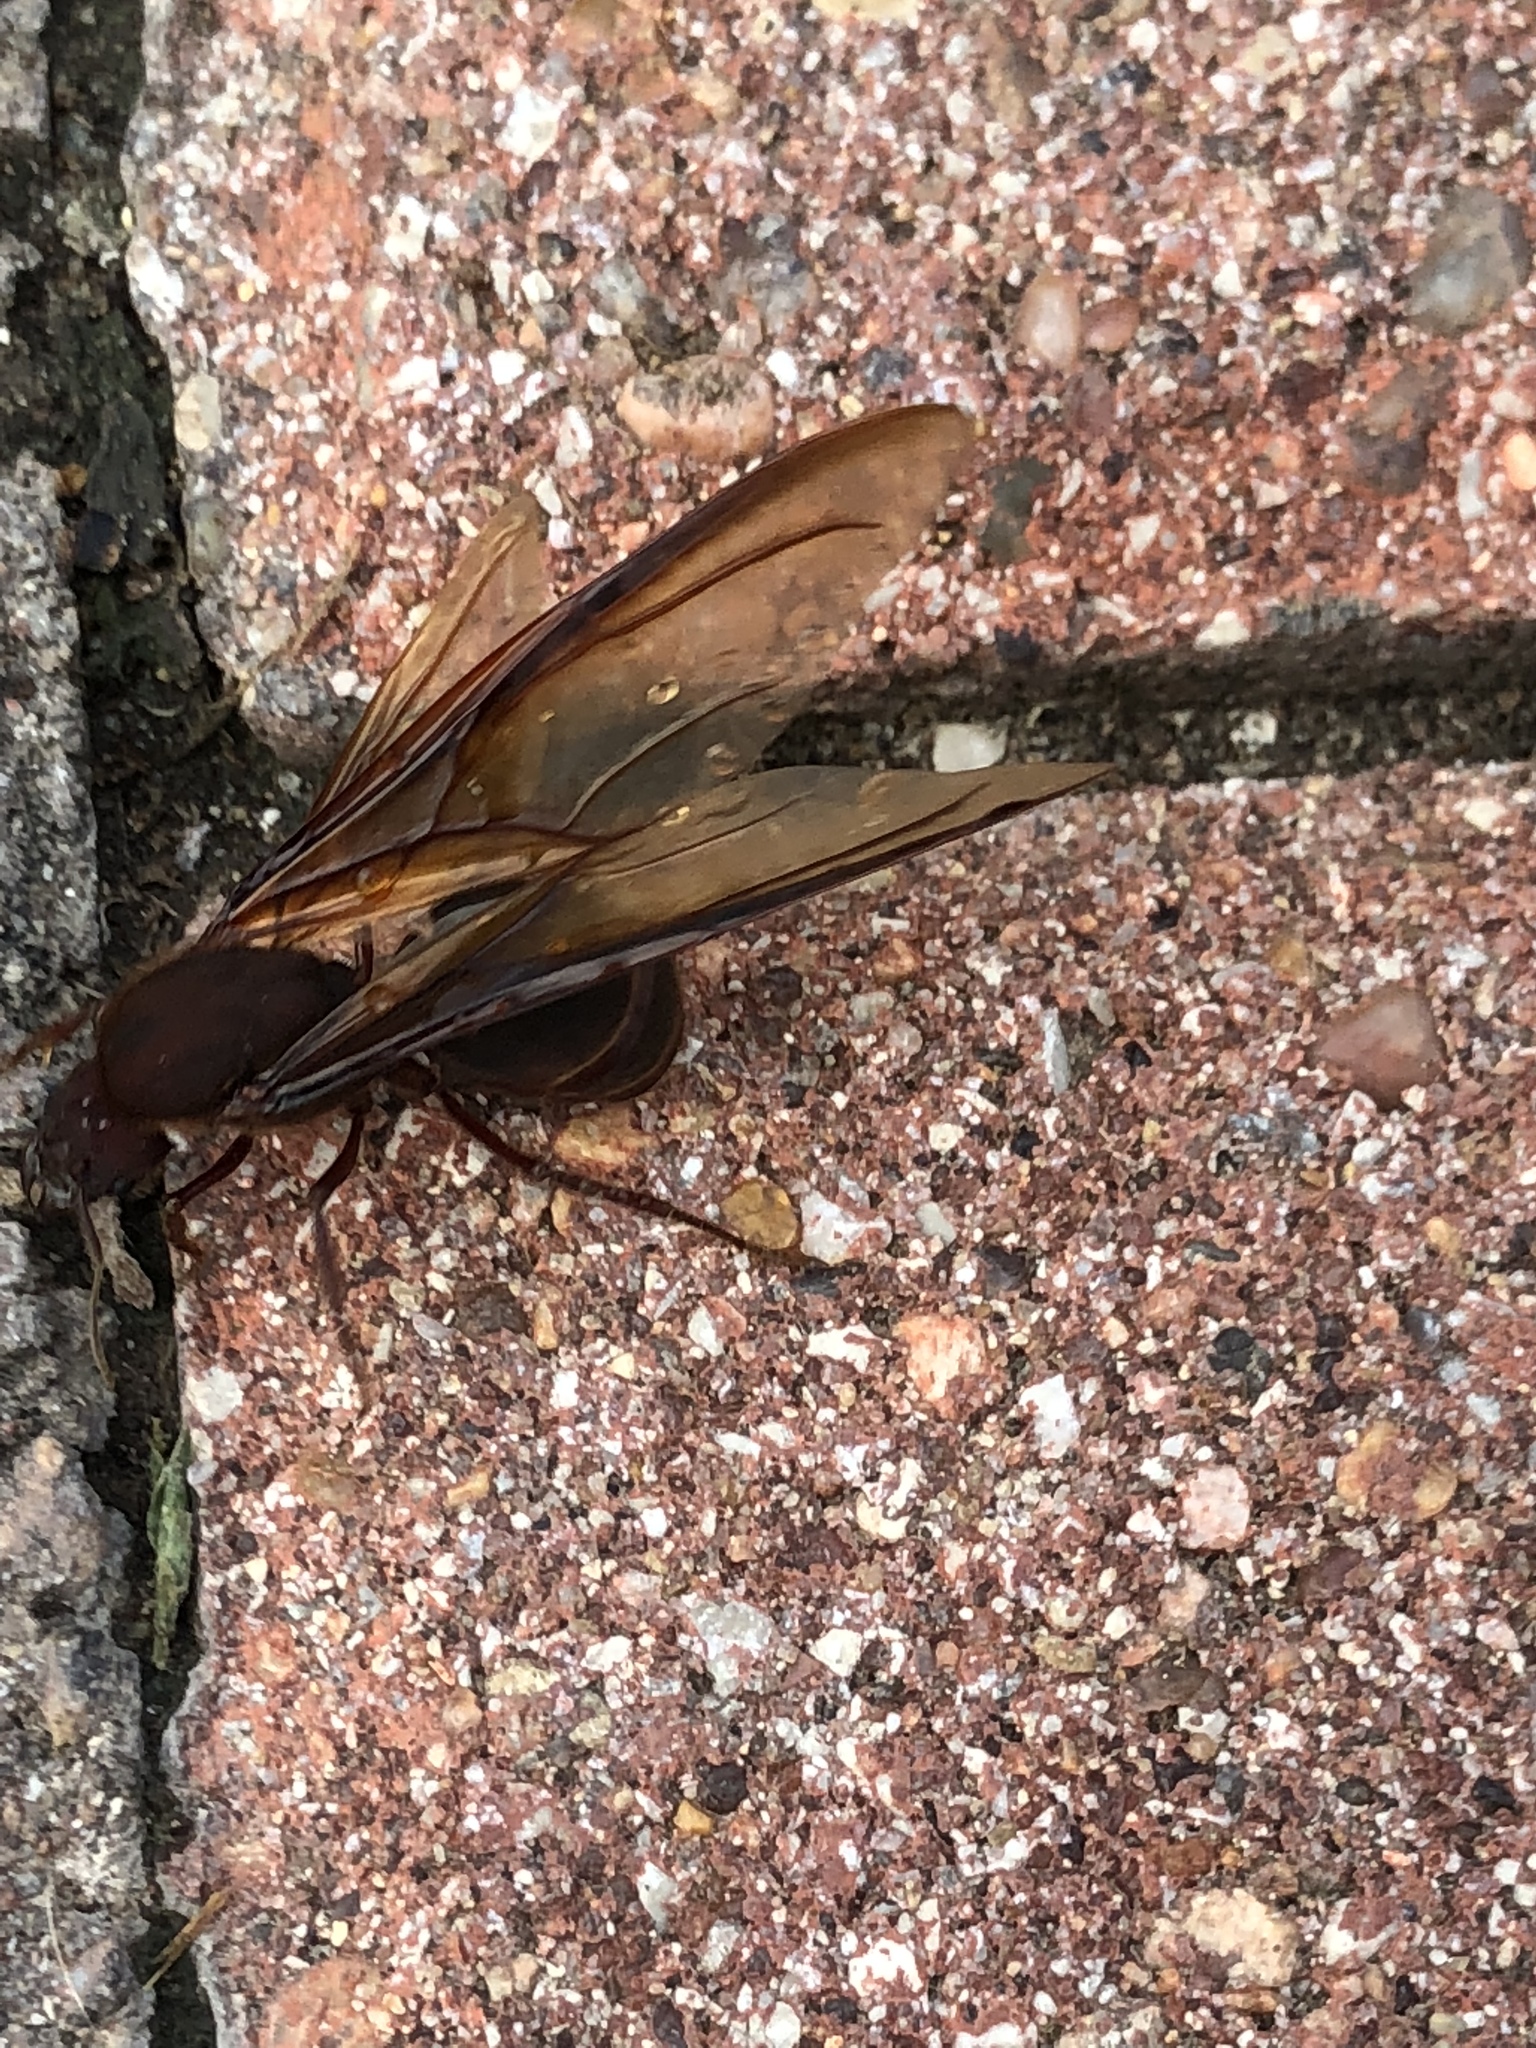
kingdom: Animalia
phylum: Arthropoda
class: Insecta
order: Hymenoptera
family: Formicidae
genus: Atta
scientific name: Atta texana
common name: Texas leafcutting ant
